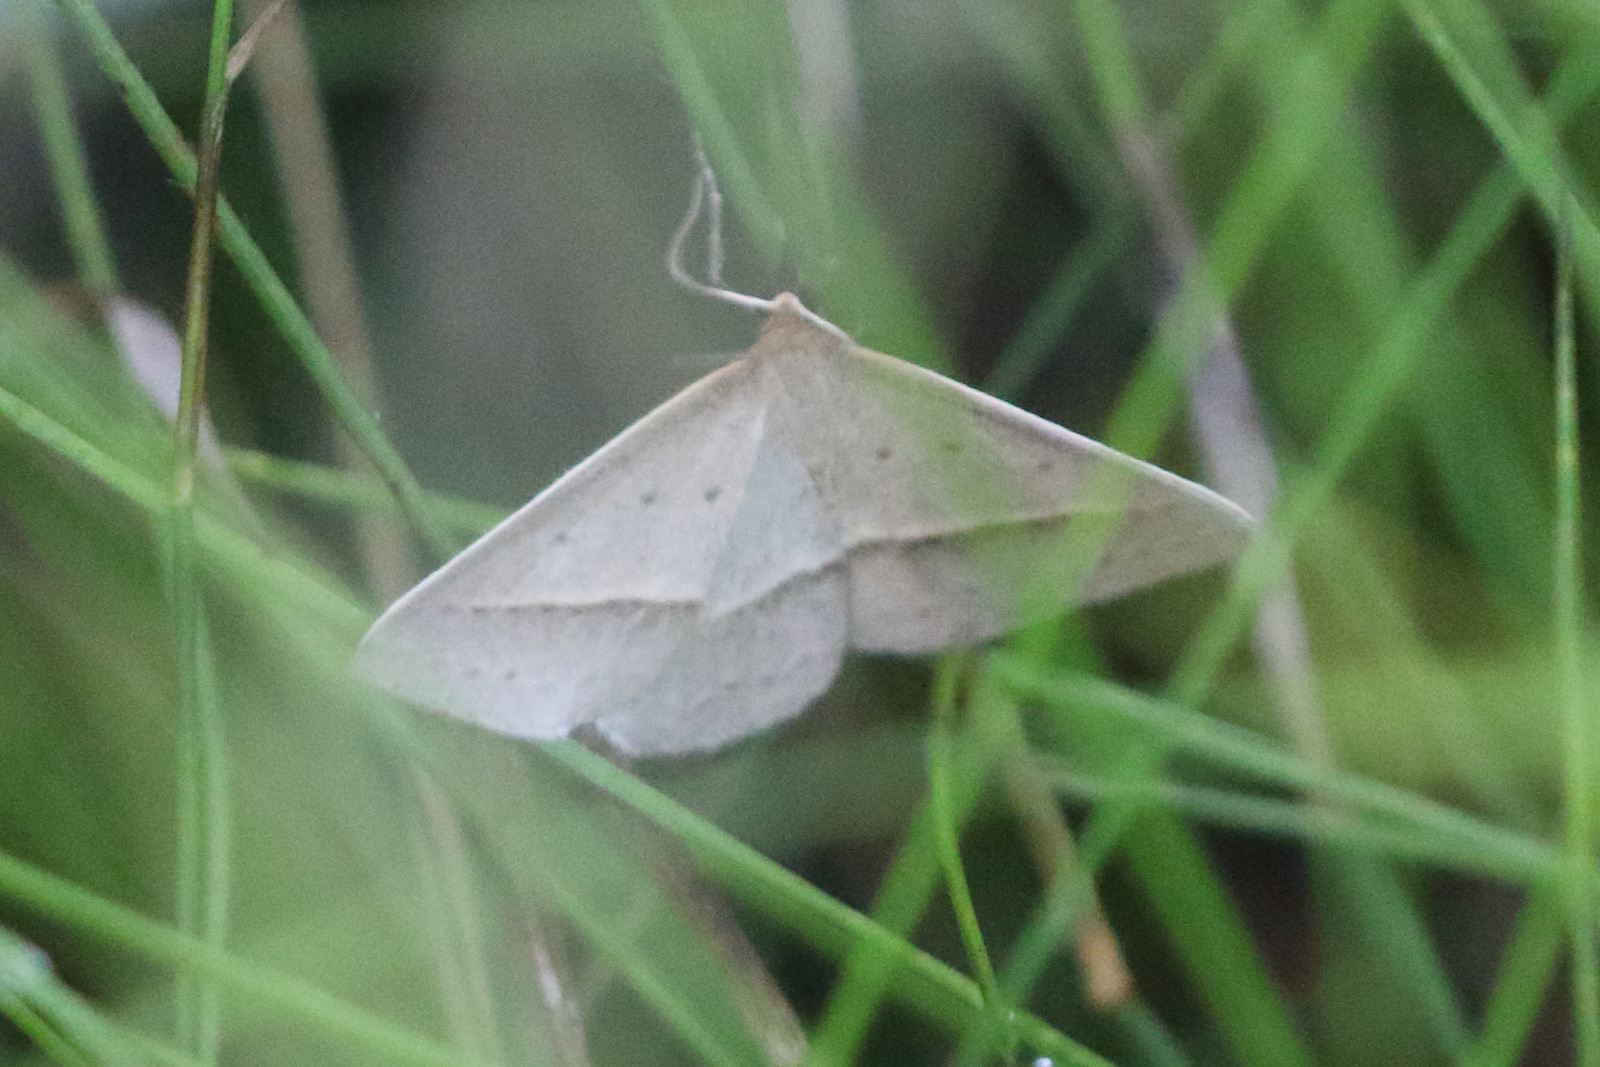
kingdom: Animalia
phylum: Arthropoda
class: Insecta
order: Lepidoptera
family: Geometridae
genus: Epidesmia
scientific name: Epidesmia tryxaria
